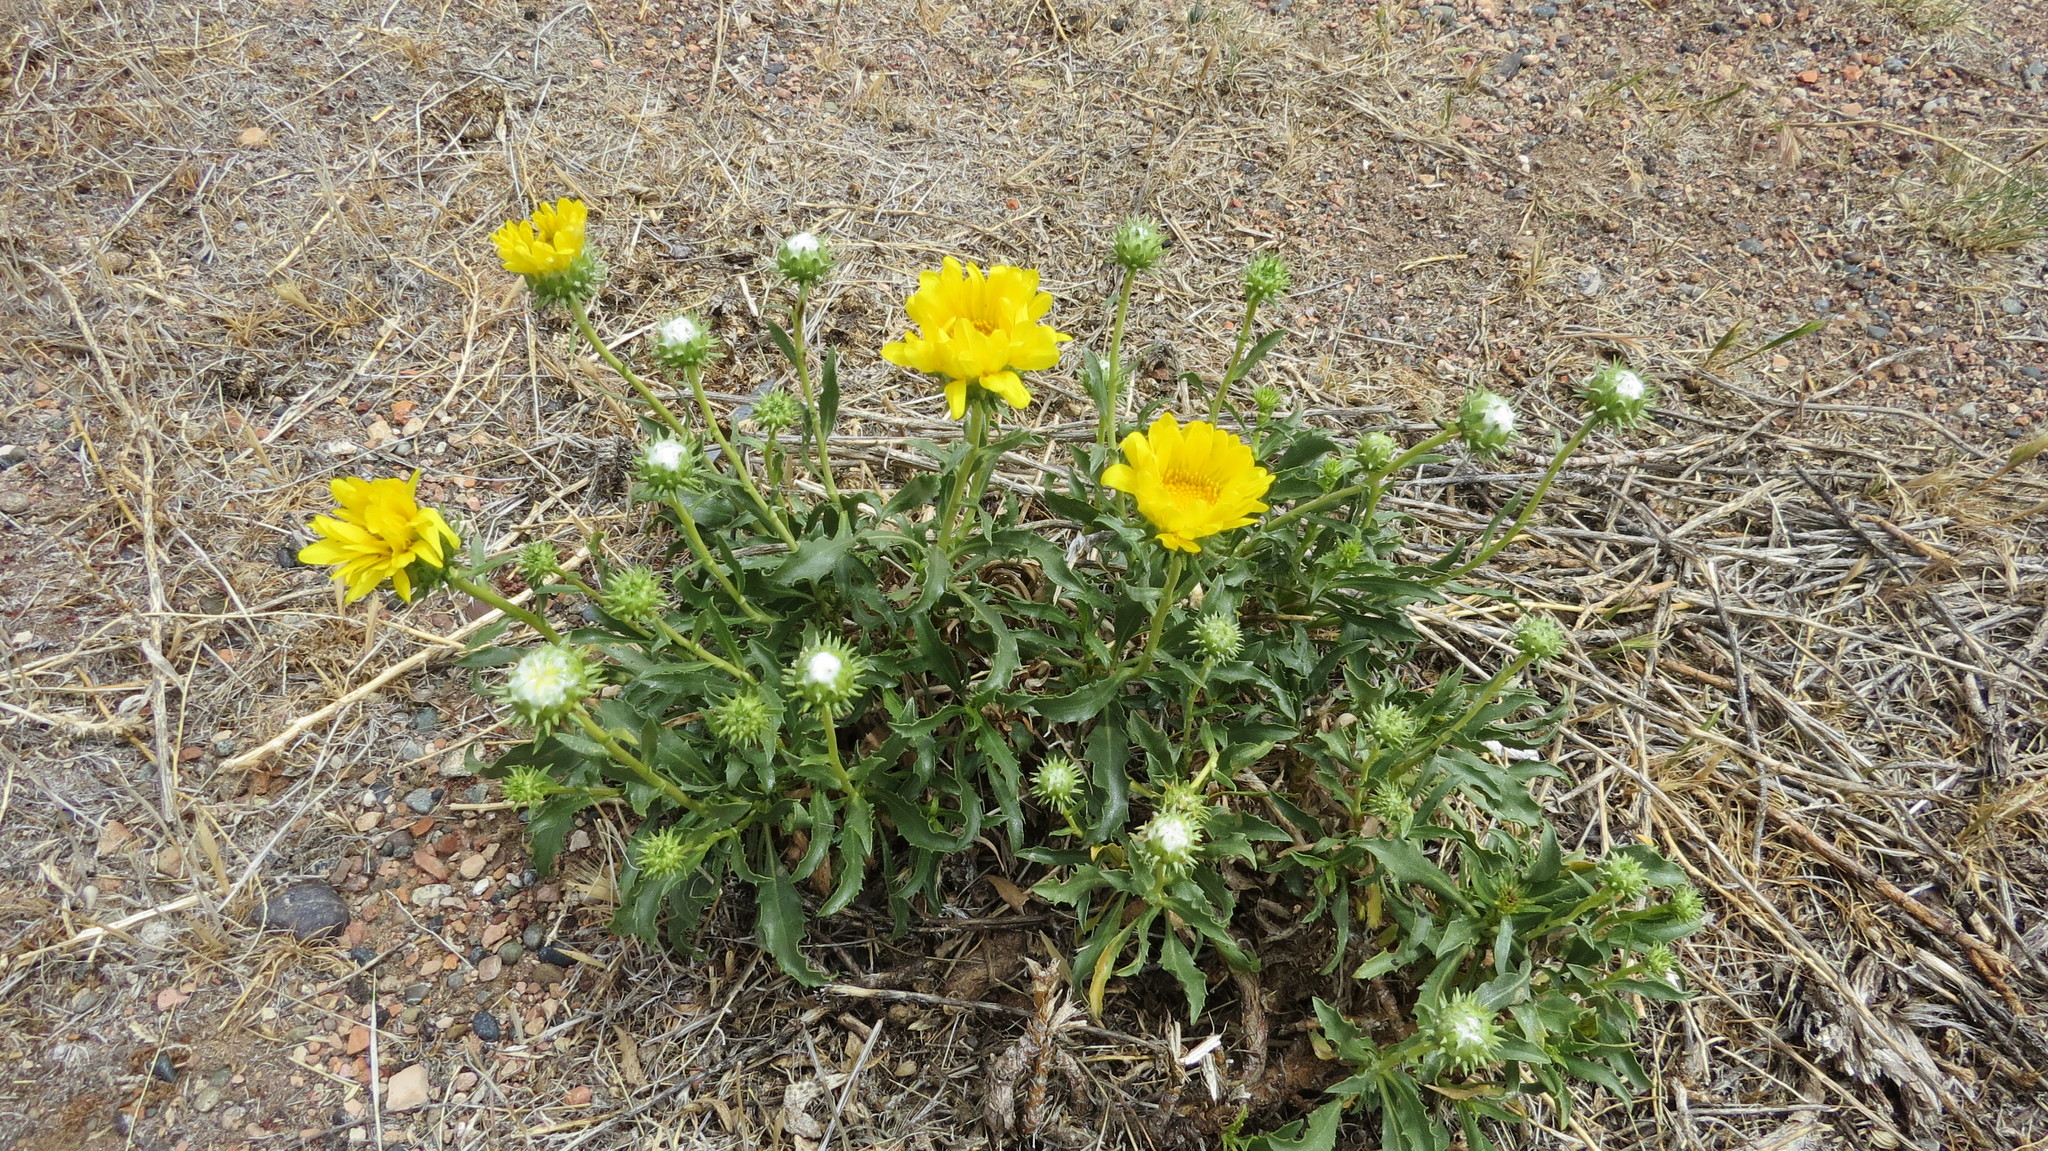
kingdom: Plantae
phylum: Tracheophyta
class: Magnoliopsida
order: Asterales
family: Asteraceae
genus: Grindelia
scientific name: Grindelia chiloensis
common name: Shrubby gumweed
